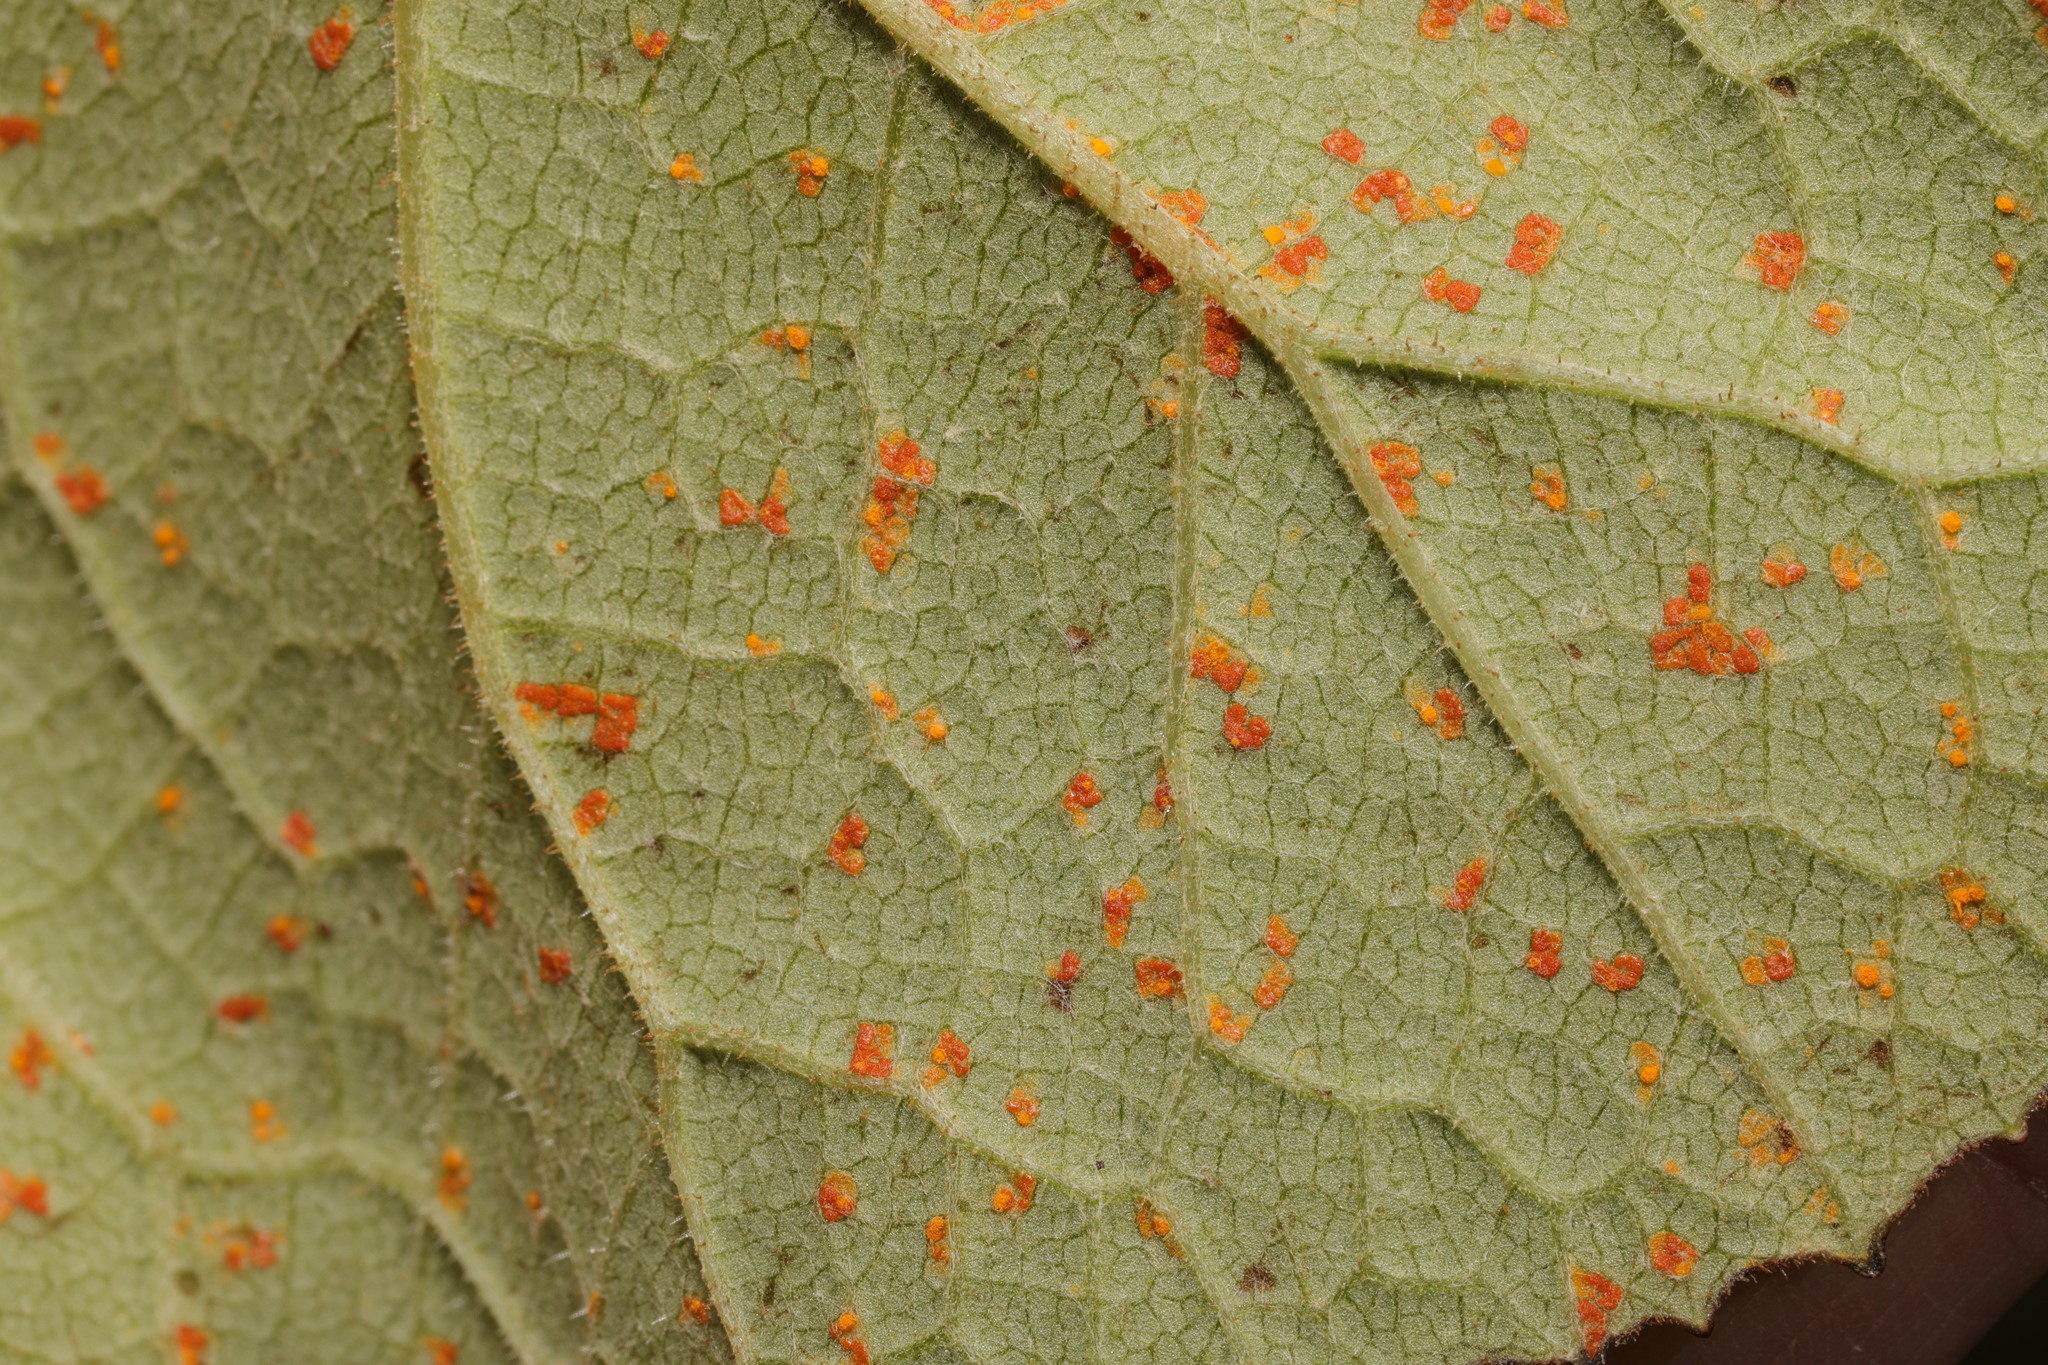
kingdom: Fungi
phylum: Basidiomycota
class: Pucciniomycetes
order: Pucciniales
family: Coleosporiaceae
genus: Coleosporium
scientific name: Coleosporium tussilaginis
